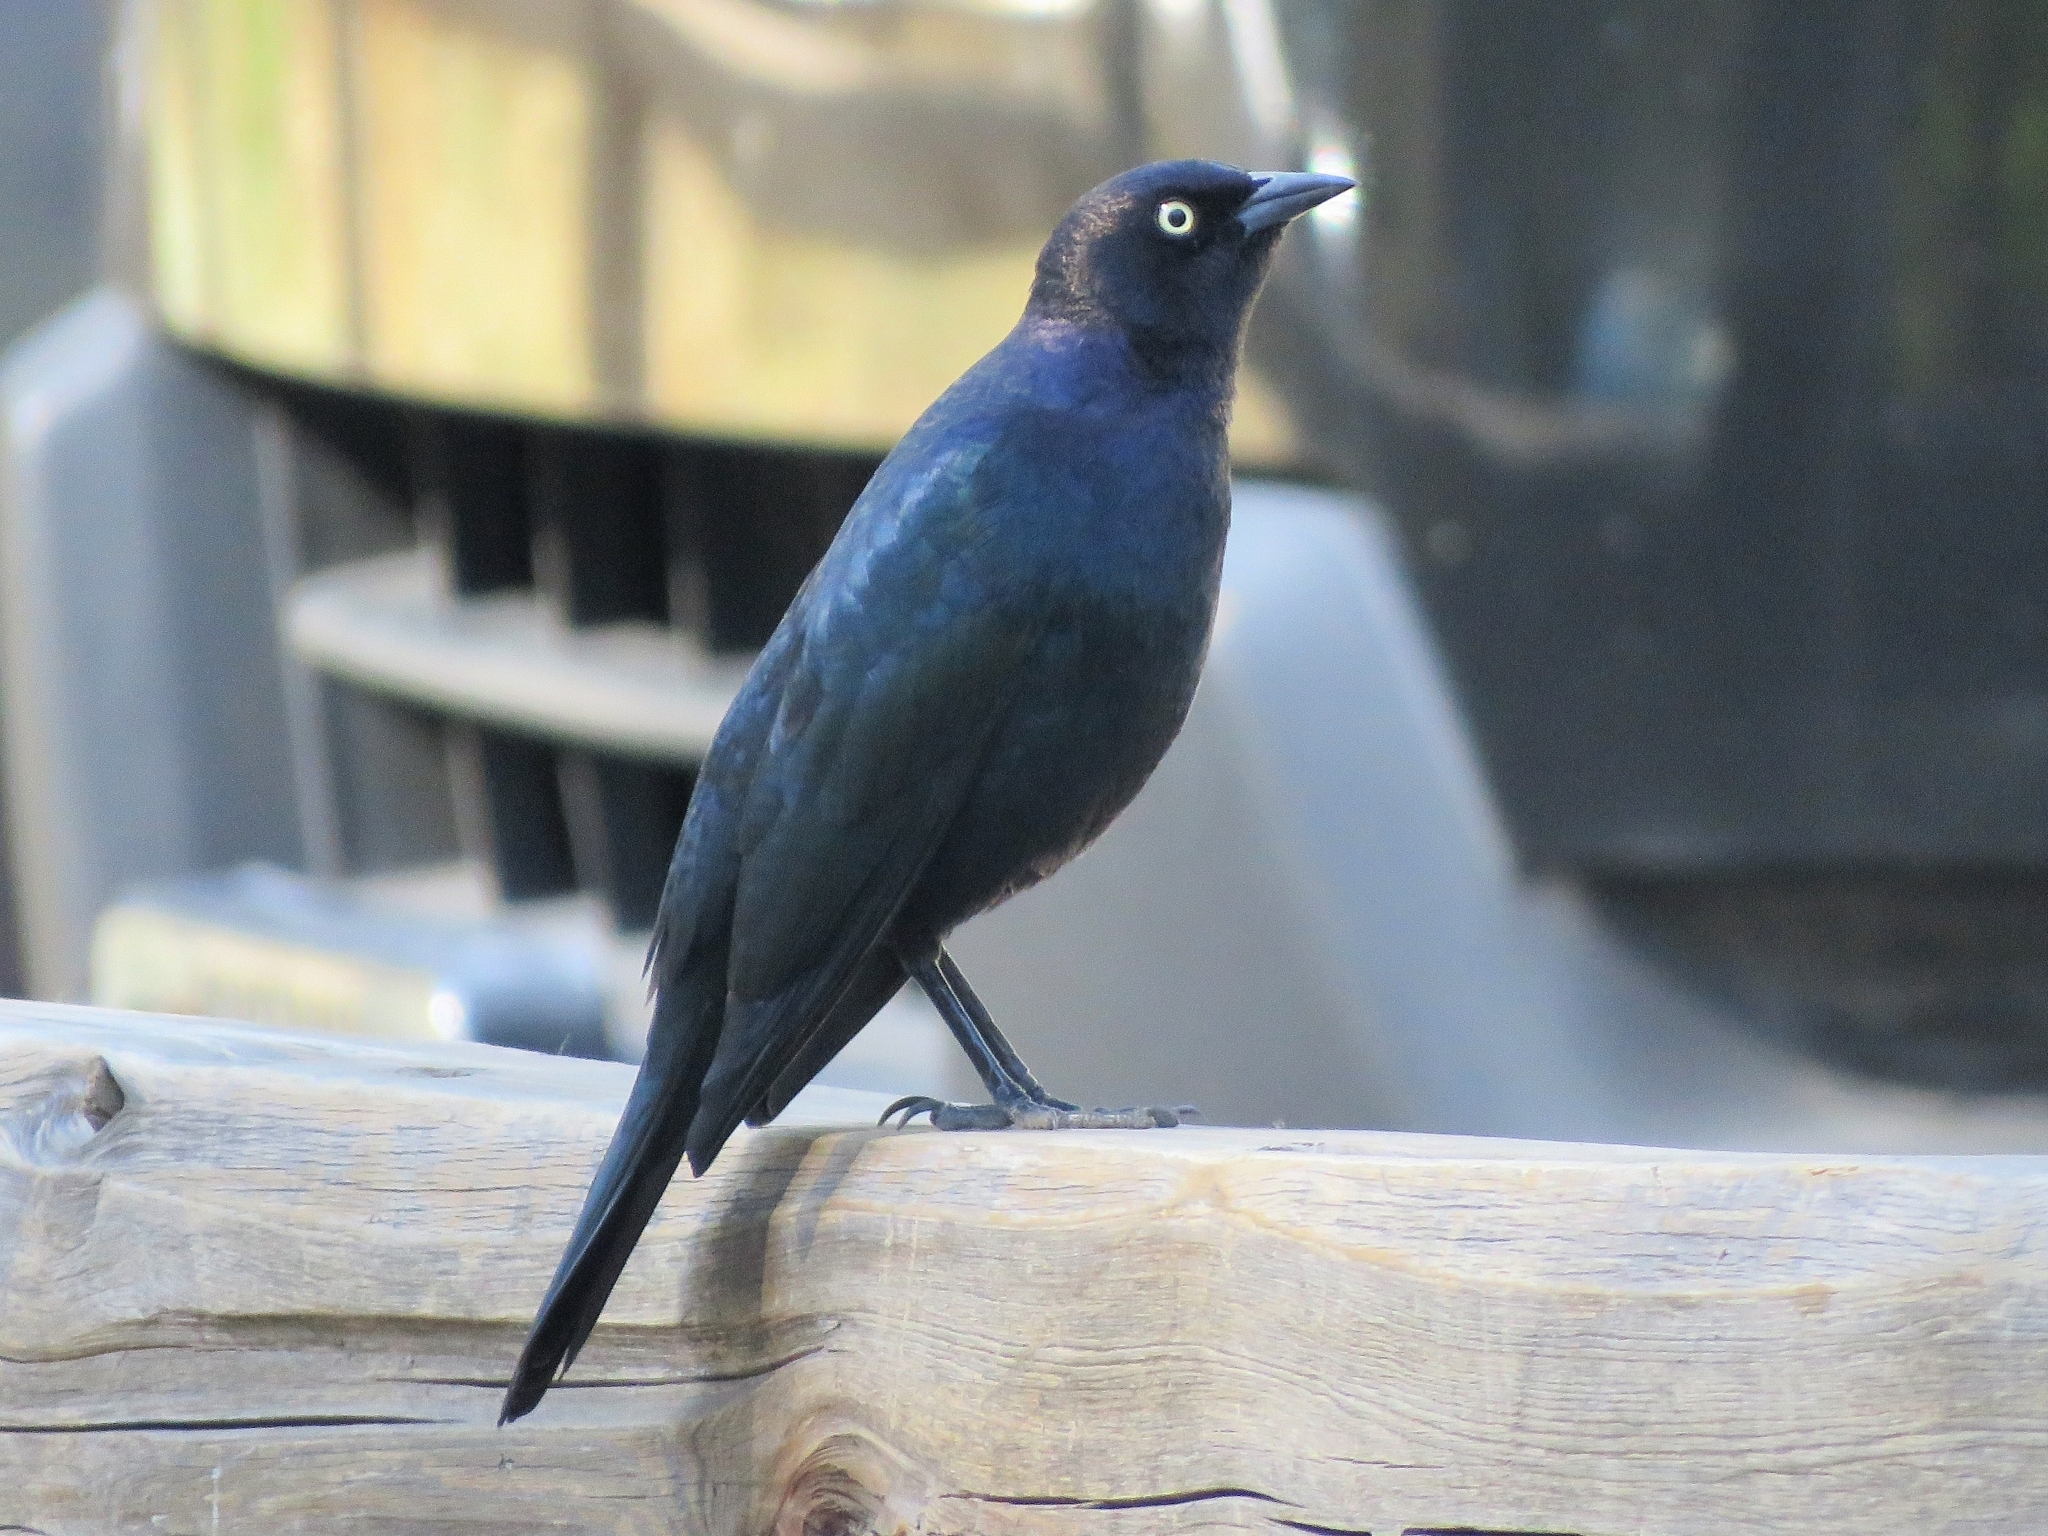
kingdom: Animalia
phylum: Chordata
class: Aves
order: Passeriformes
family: Icteridae
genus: Euphagus
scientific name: Euphagus cyanocephalus
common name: Brewer's blackbird
